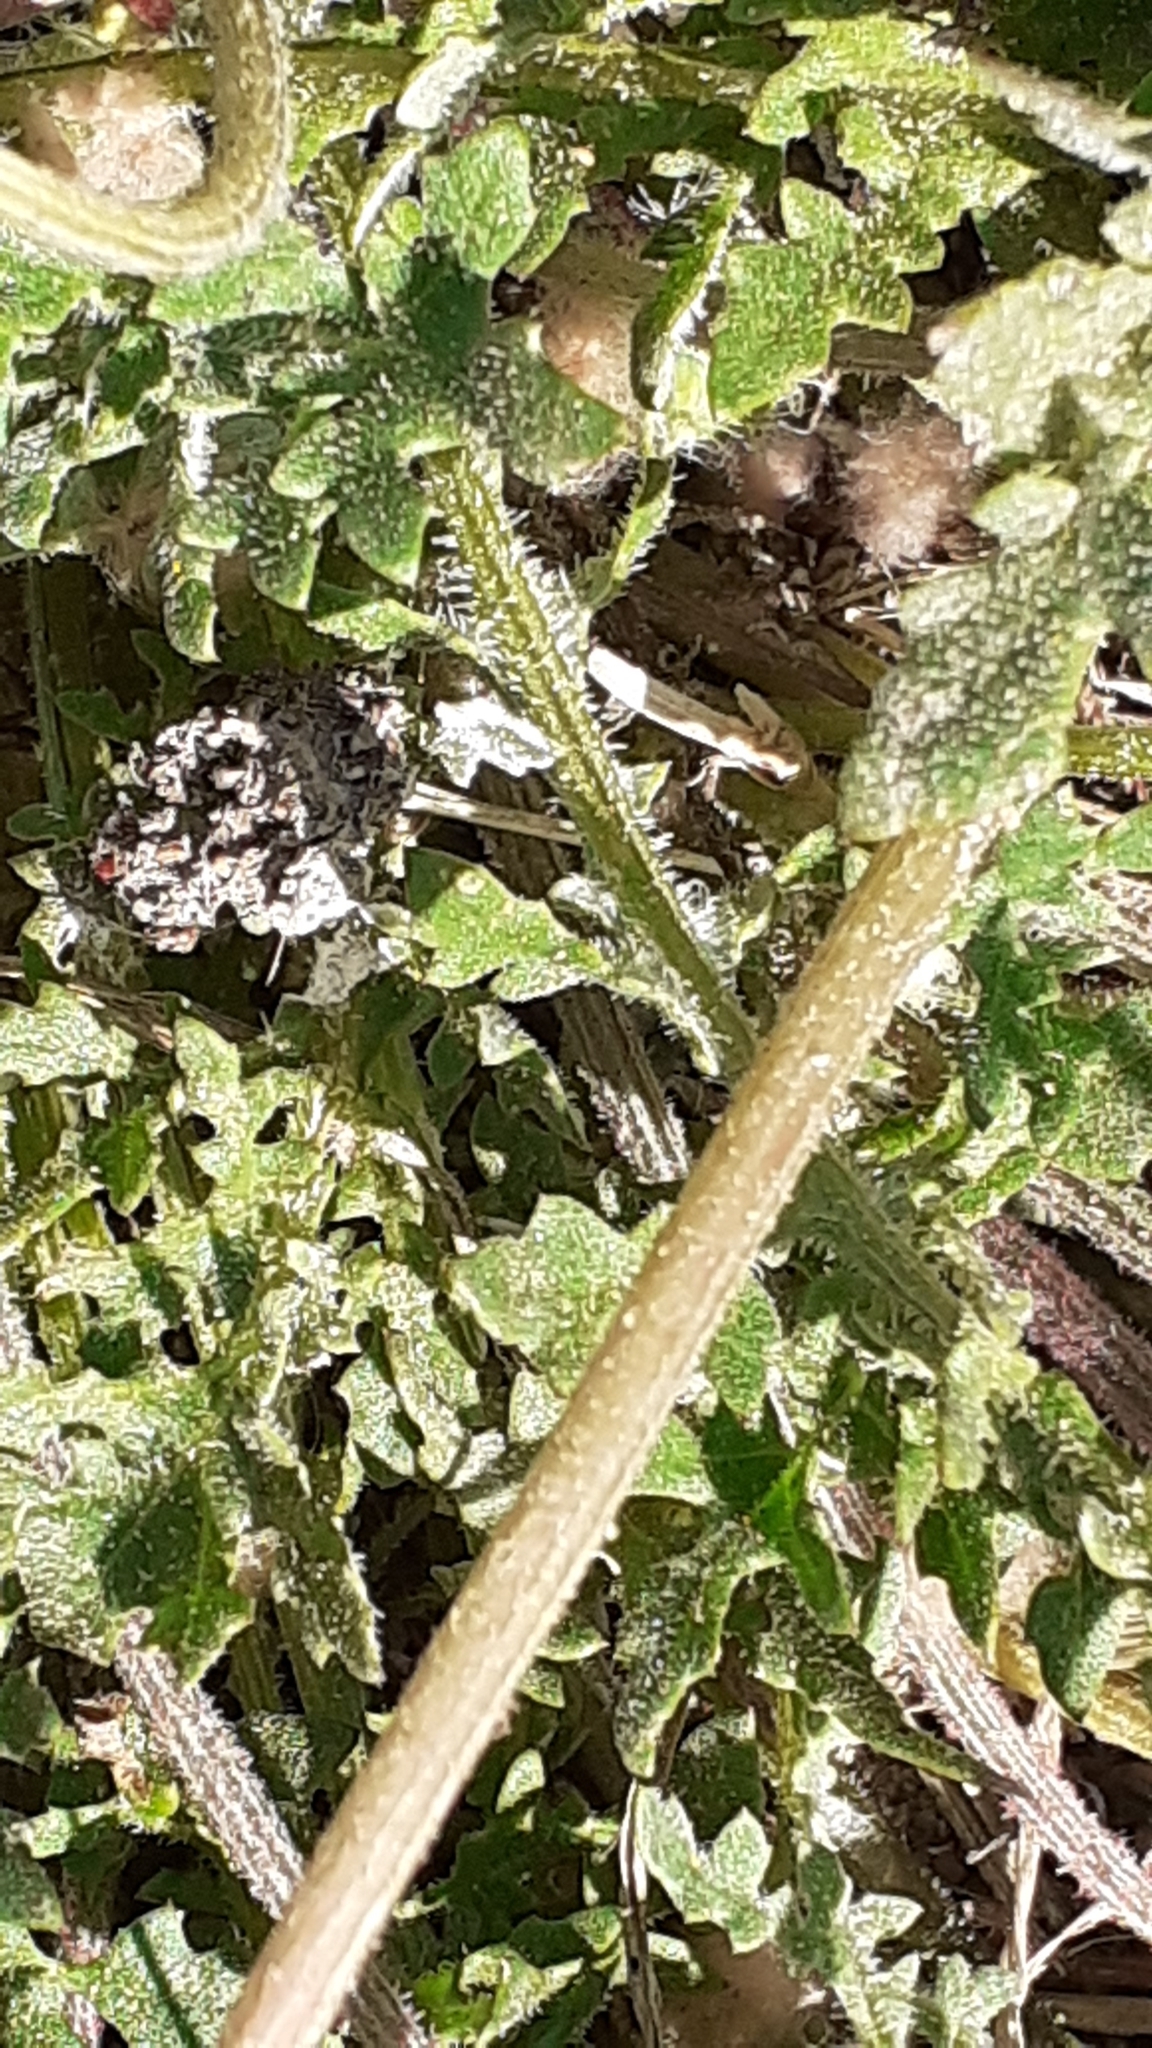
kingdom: Plantae
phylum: Tracheophyta
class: Magnoliopsida
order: Asterales
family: Asteraceae
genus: Arctotheca
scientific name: Arctotheca calendula
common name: Capeweed
